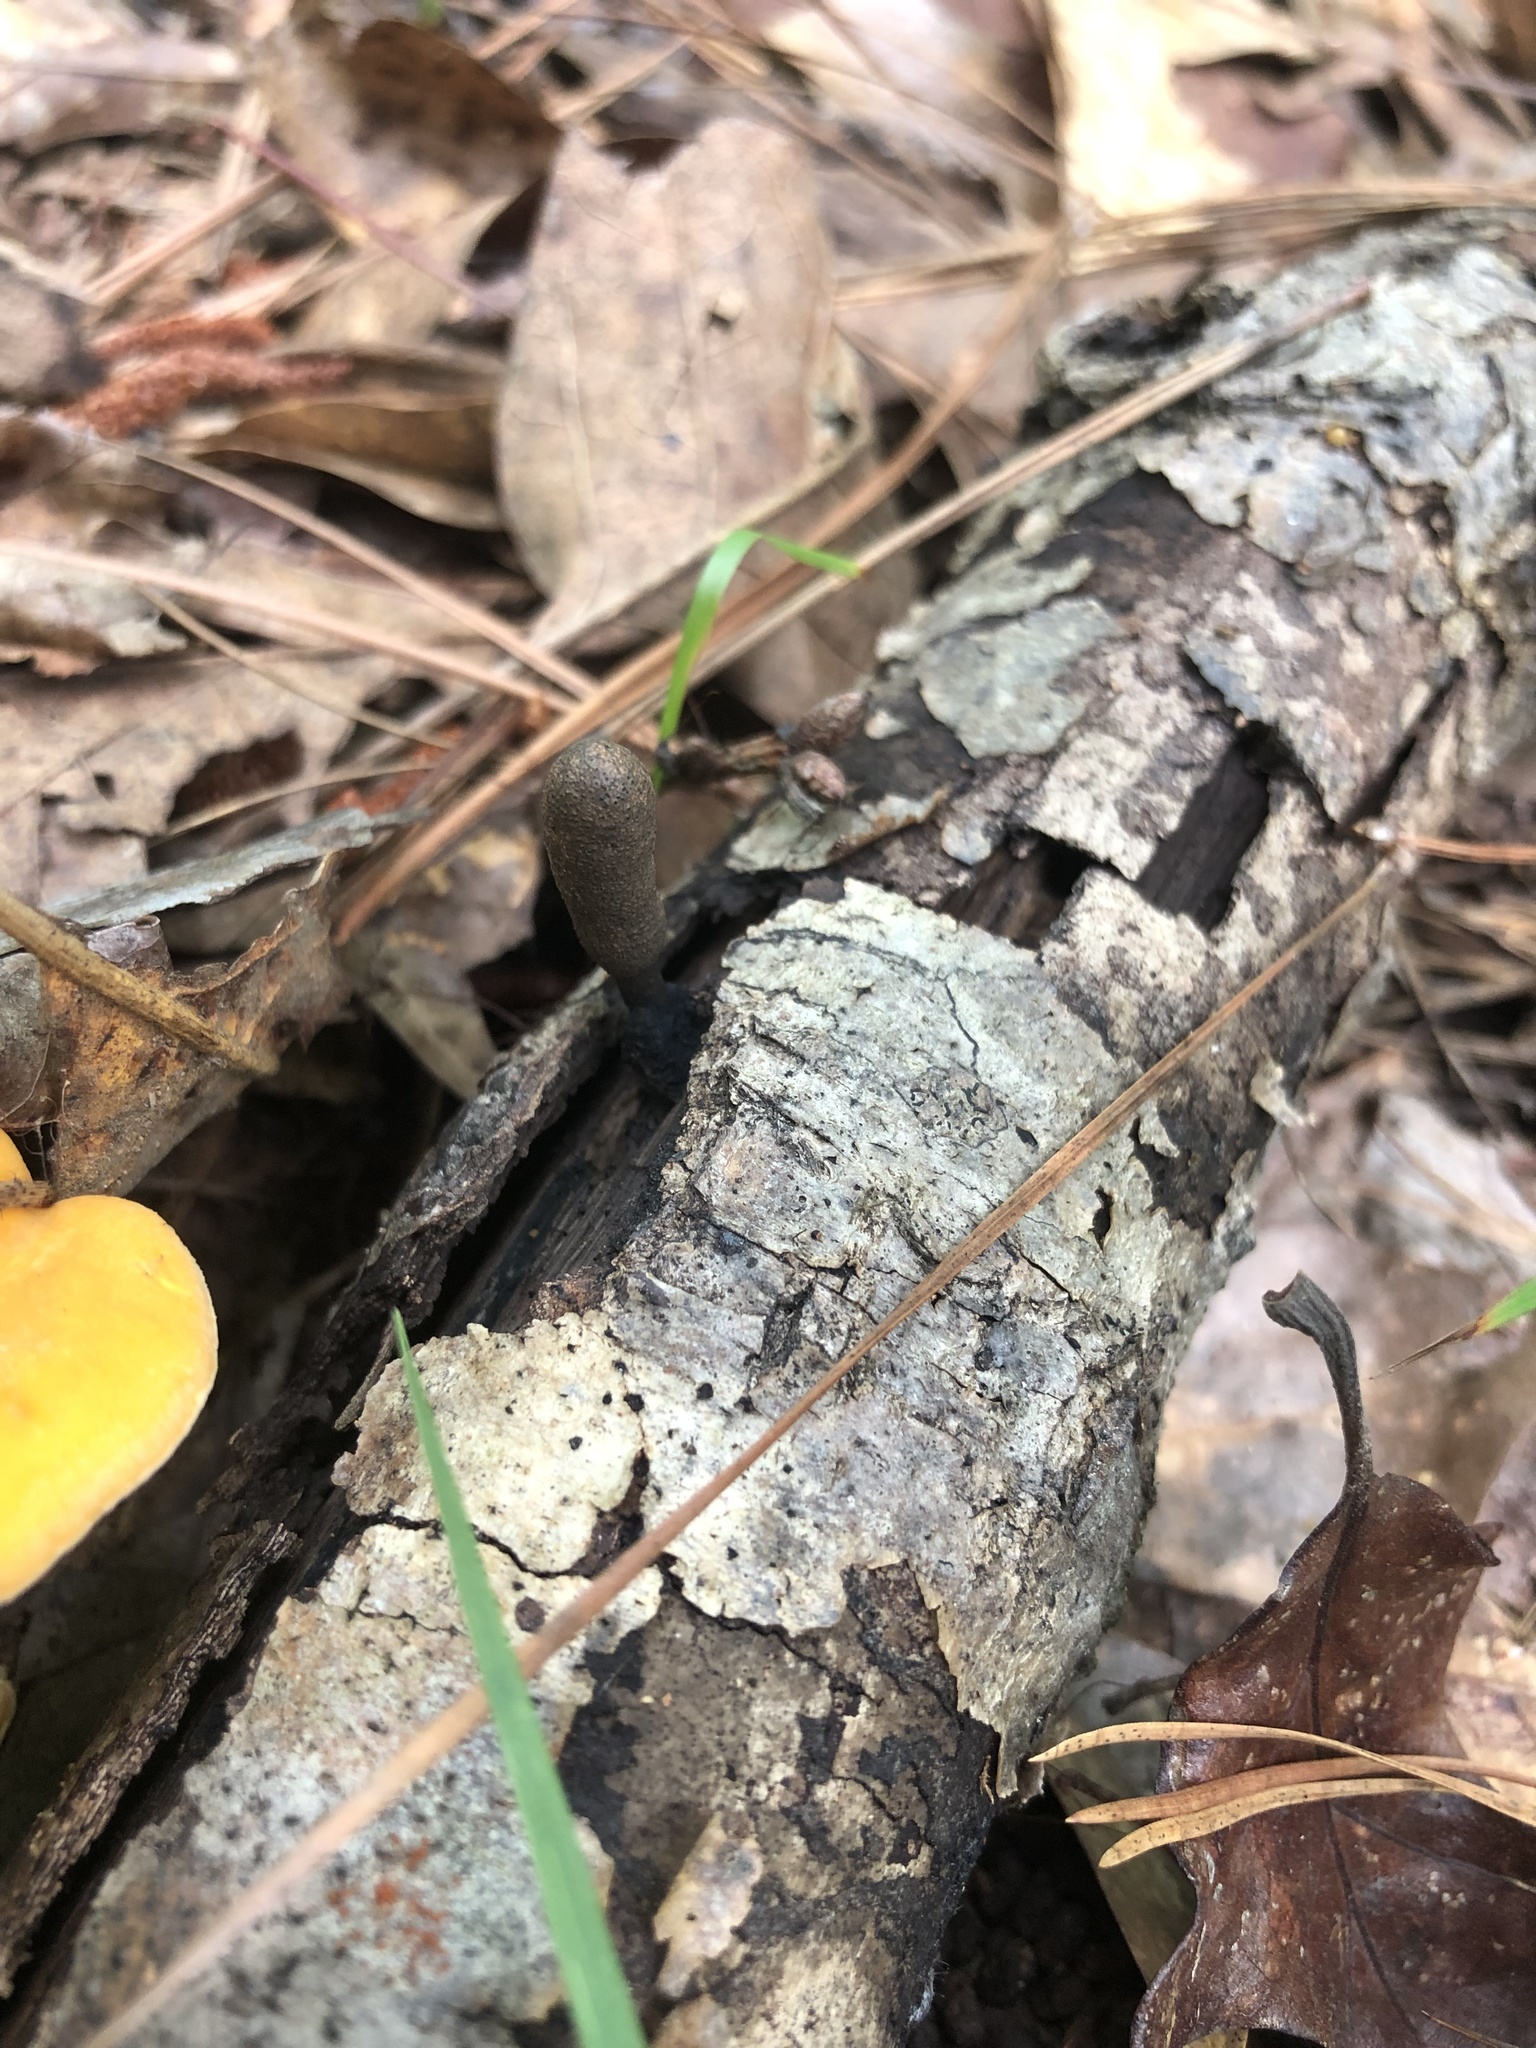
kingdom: Fungi
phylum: Ascomycota
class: Sordariomycetes
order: Xylariales
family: Xylariaceae
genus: Xylaria
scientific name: Xylaria longipes
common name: Dead moll's fingers
